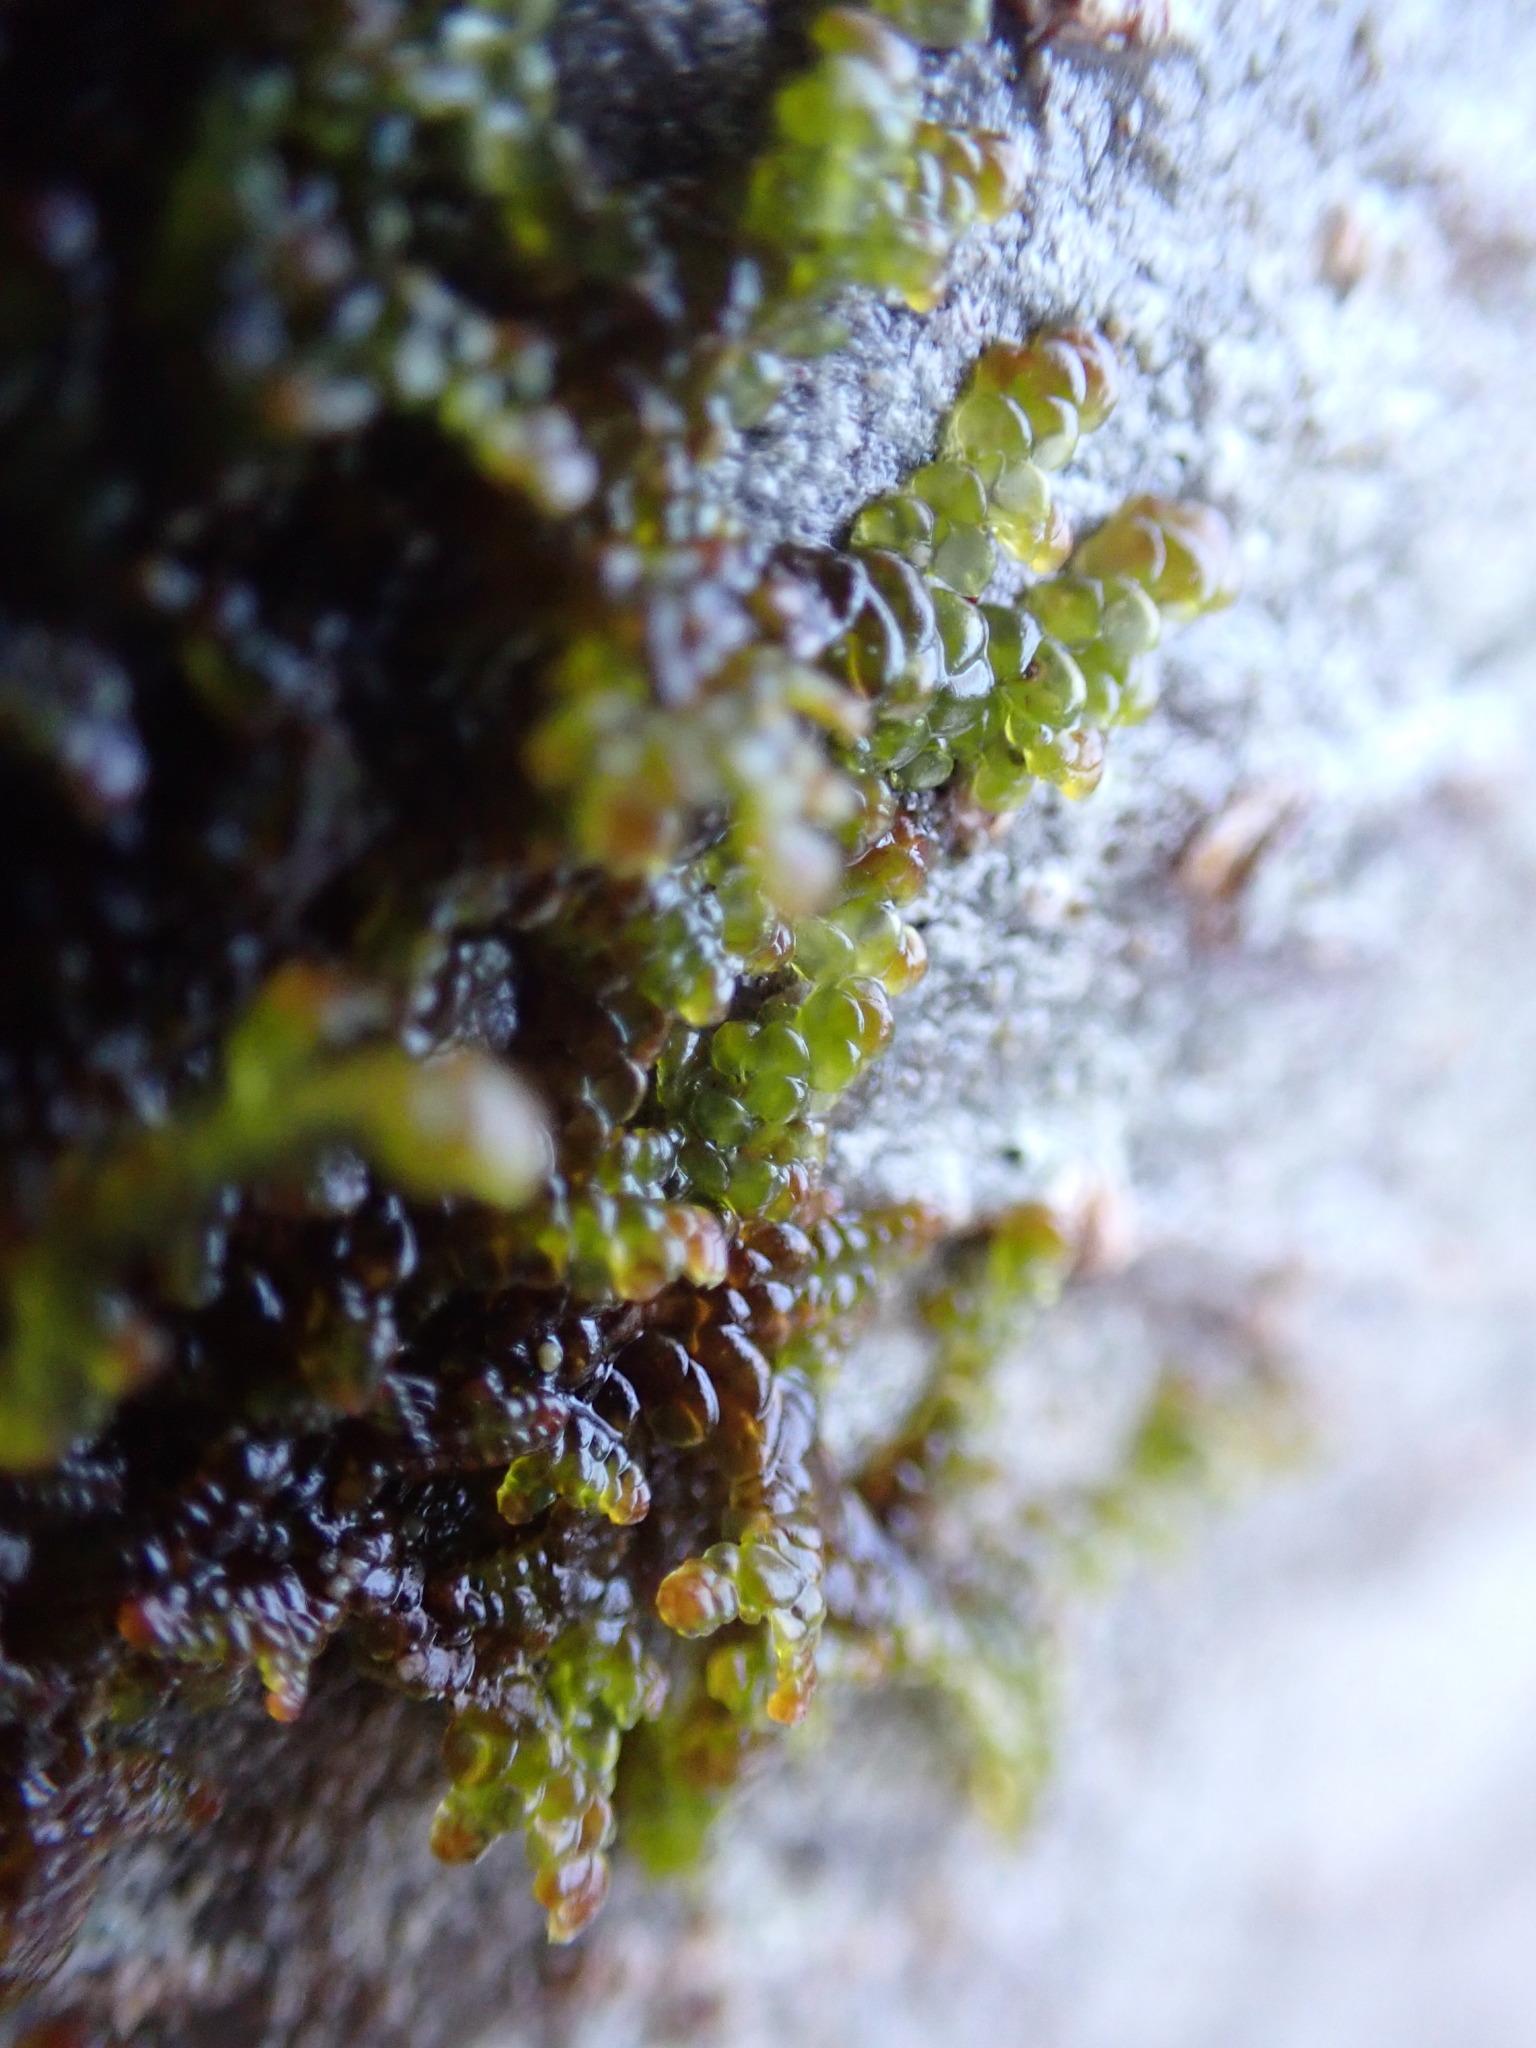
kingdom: Plantae
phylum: Marchantiophyta
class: Jungermanniopsida
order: Porellales
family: Frullaniaceae
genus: Frullania
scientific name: Frullania nisquallensis
